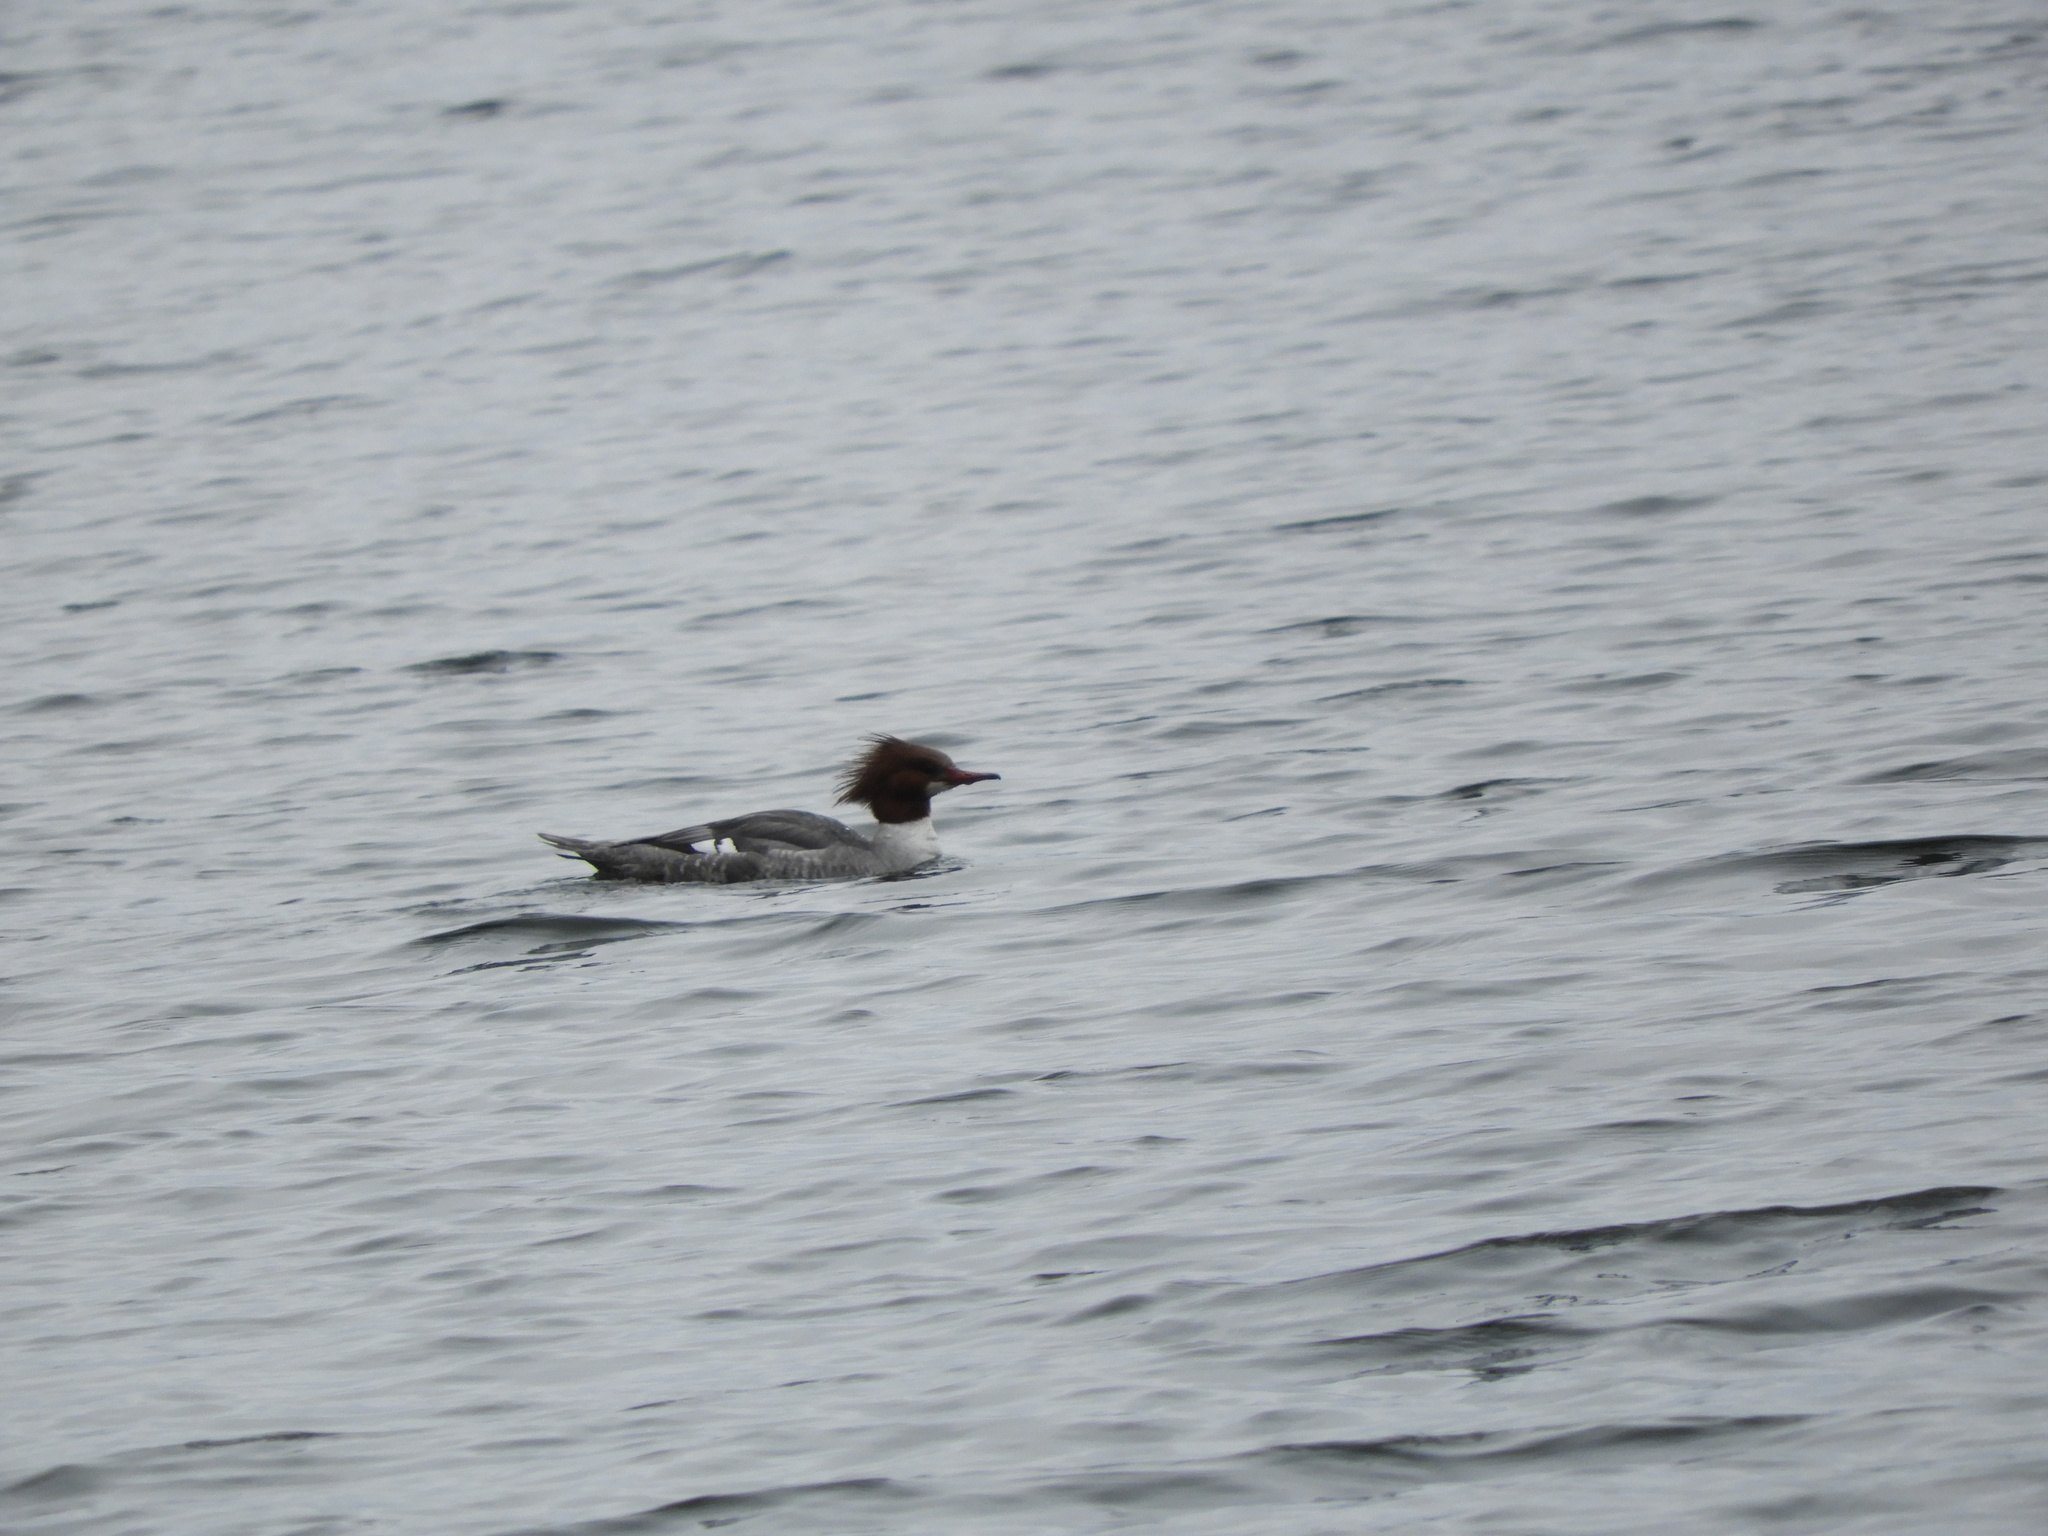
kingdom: Animalia
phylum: Chordata
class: Aves
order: Anseriformes
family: Anatidae
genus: Mergus
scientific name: Mergus merganser
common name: Common merganser
